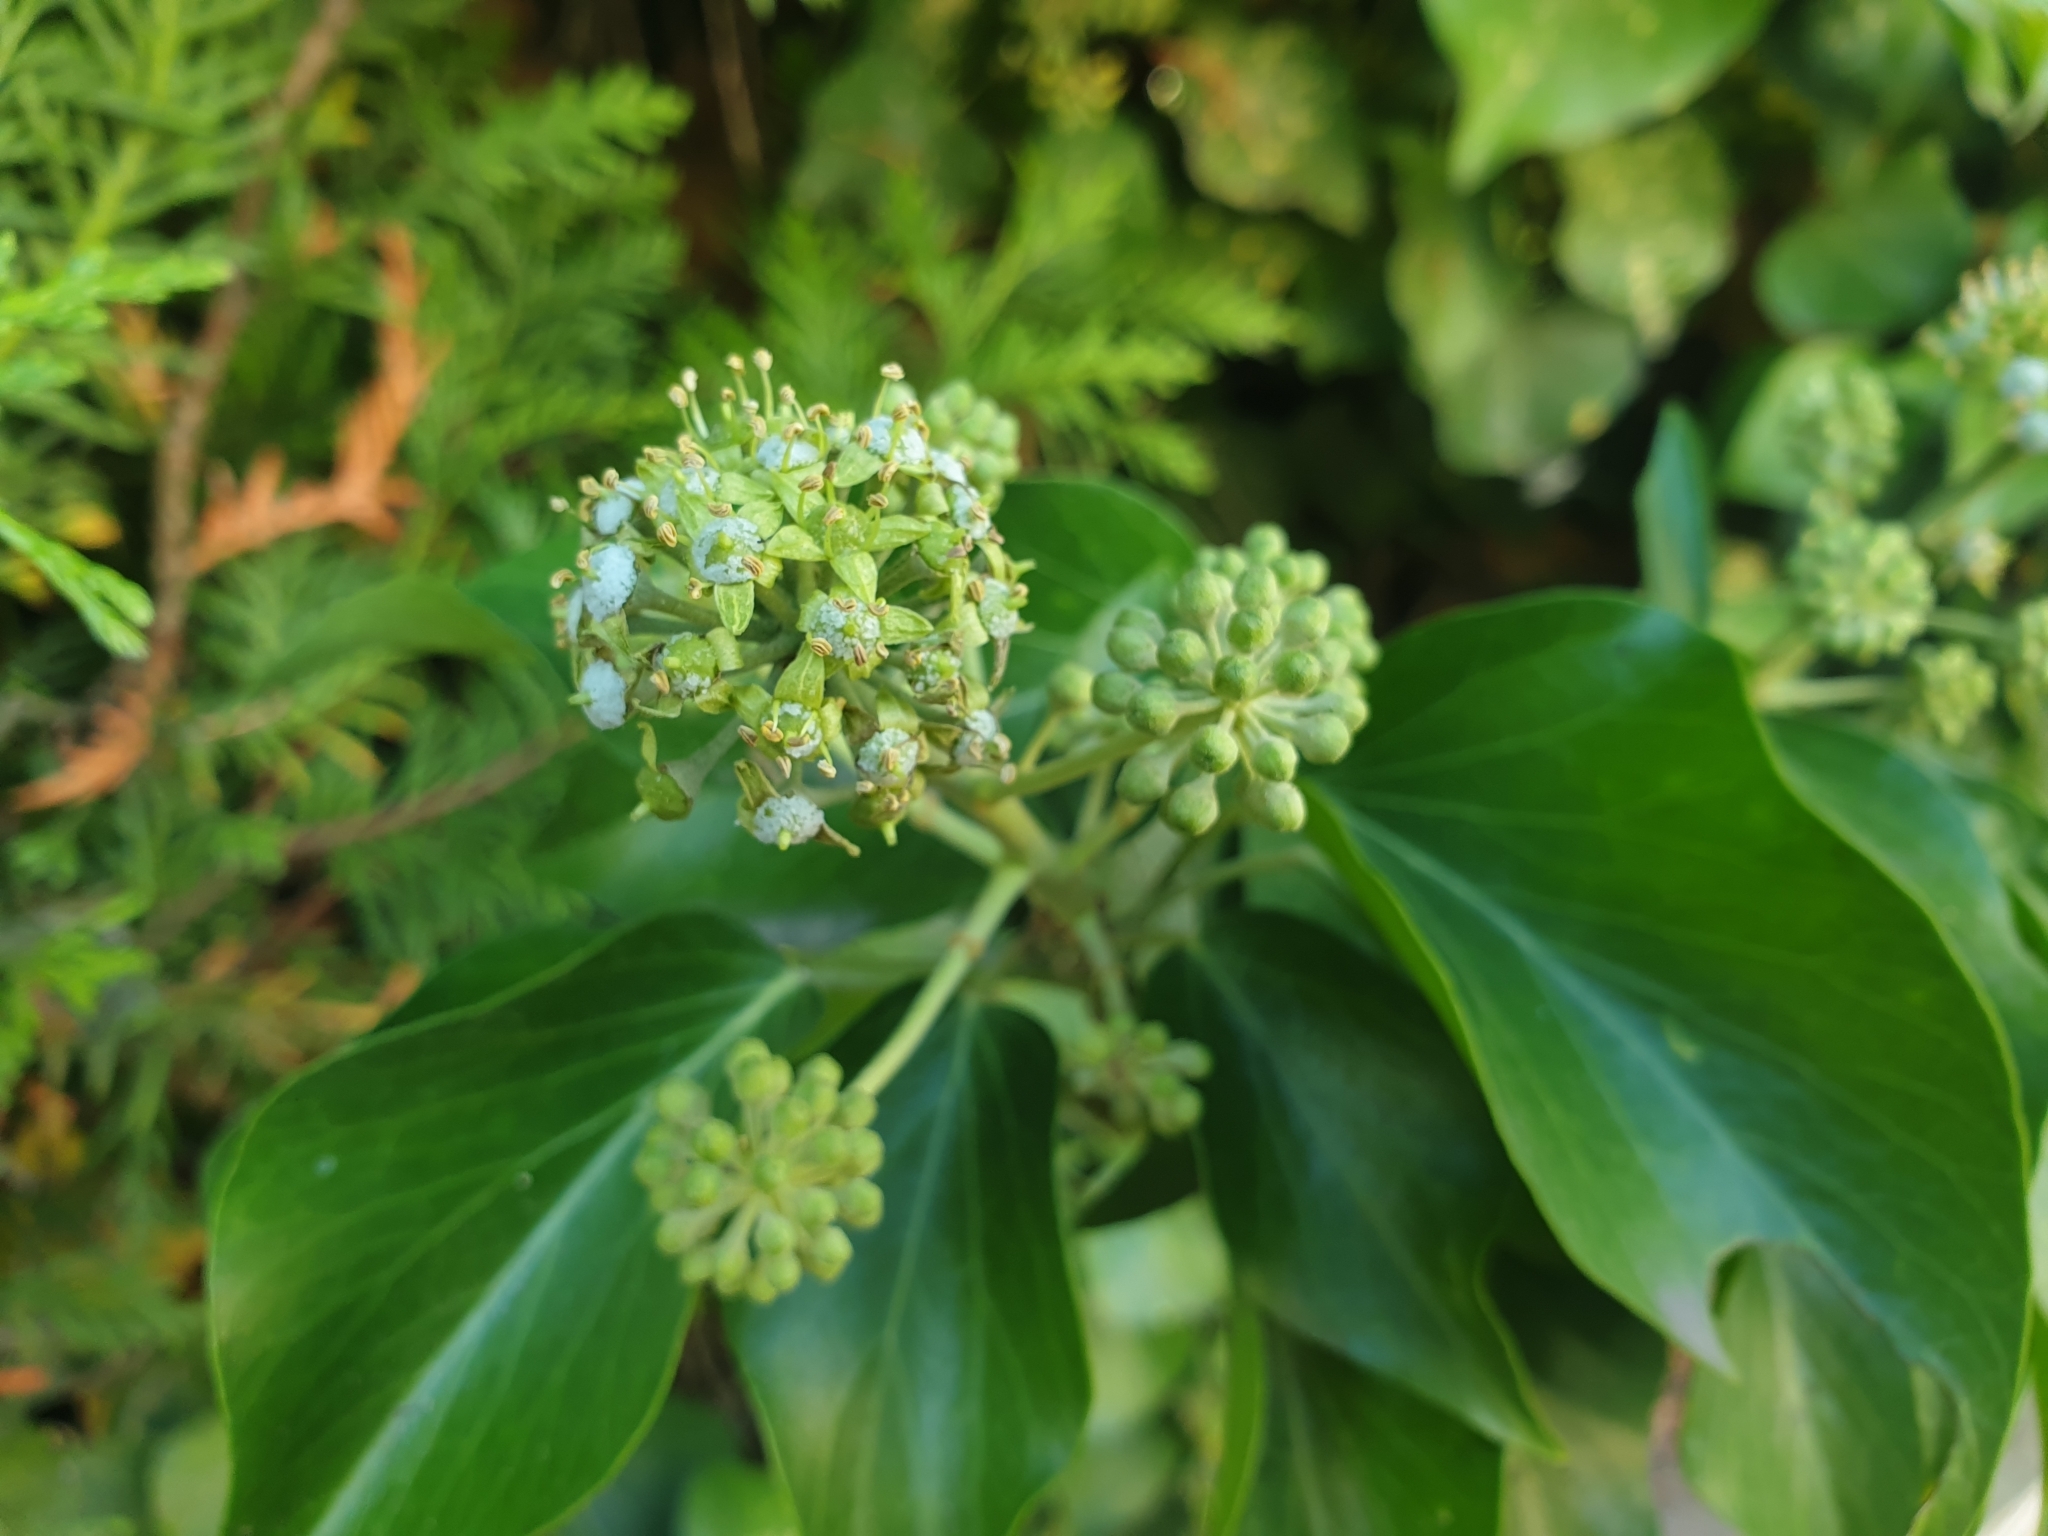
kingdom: Plantae
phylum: Tracheophyta
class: Magnoliopsida
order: Apiales
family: Araliaceae
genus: Hedera
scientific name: Hedera helix
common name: Ivy
